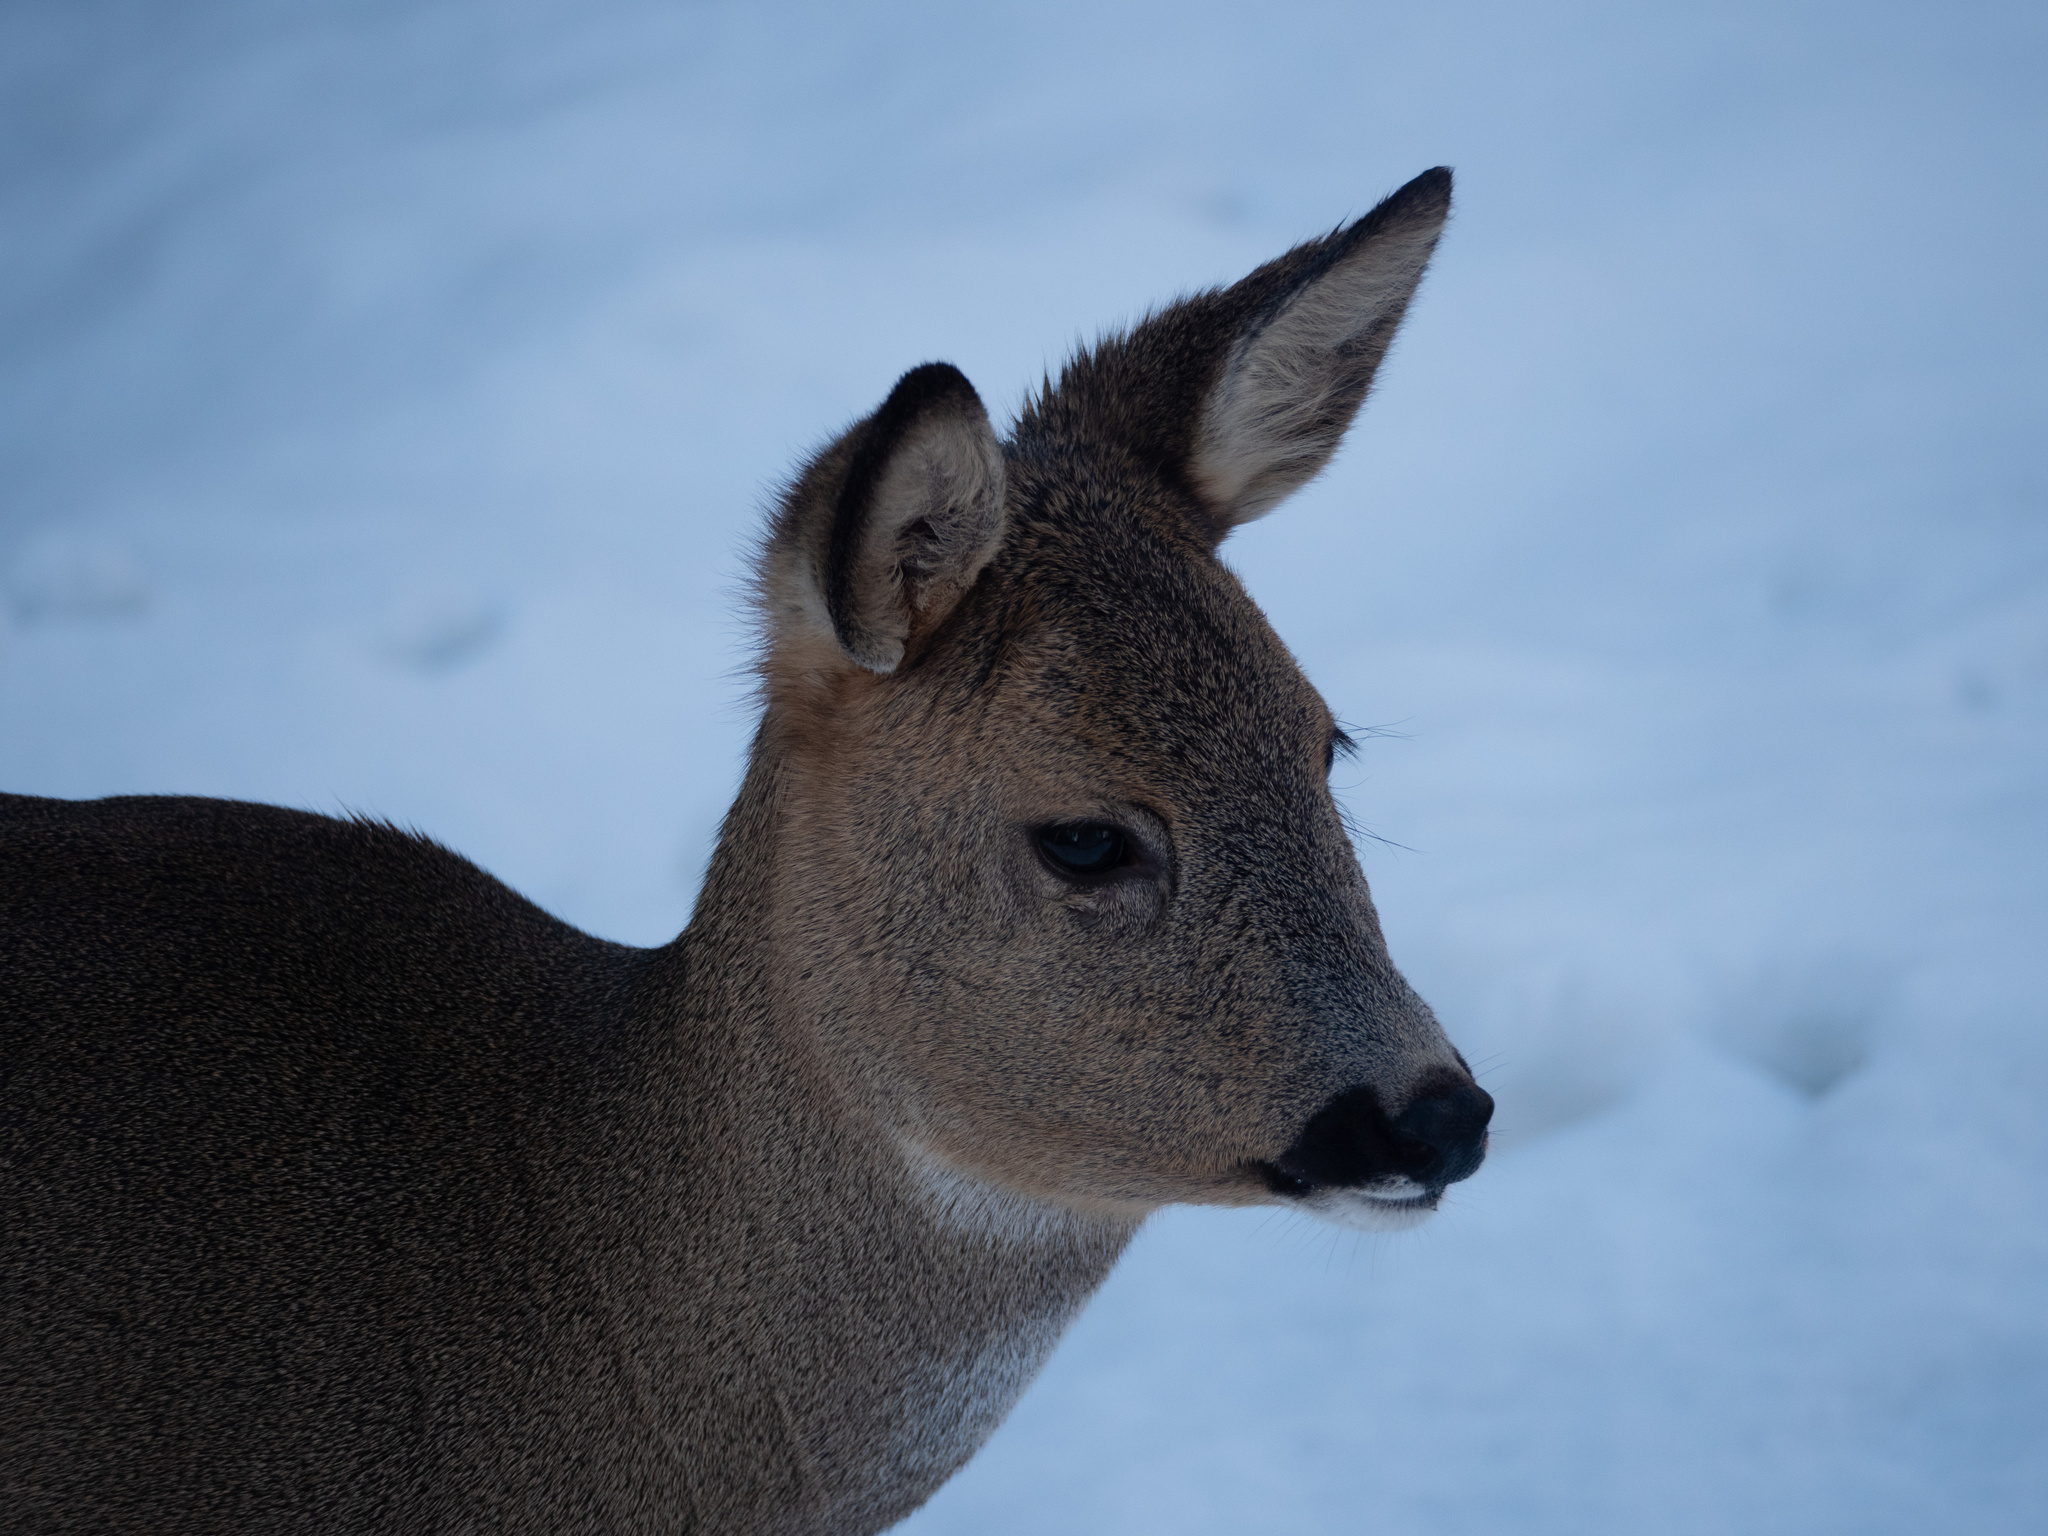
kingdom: Animalia
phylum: Chordata
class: Mammalia
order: Artiodactyla
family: Cervidae
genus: Capreolus
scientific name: Capreolus capreolus
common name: Western roe deer
